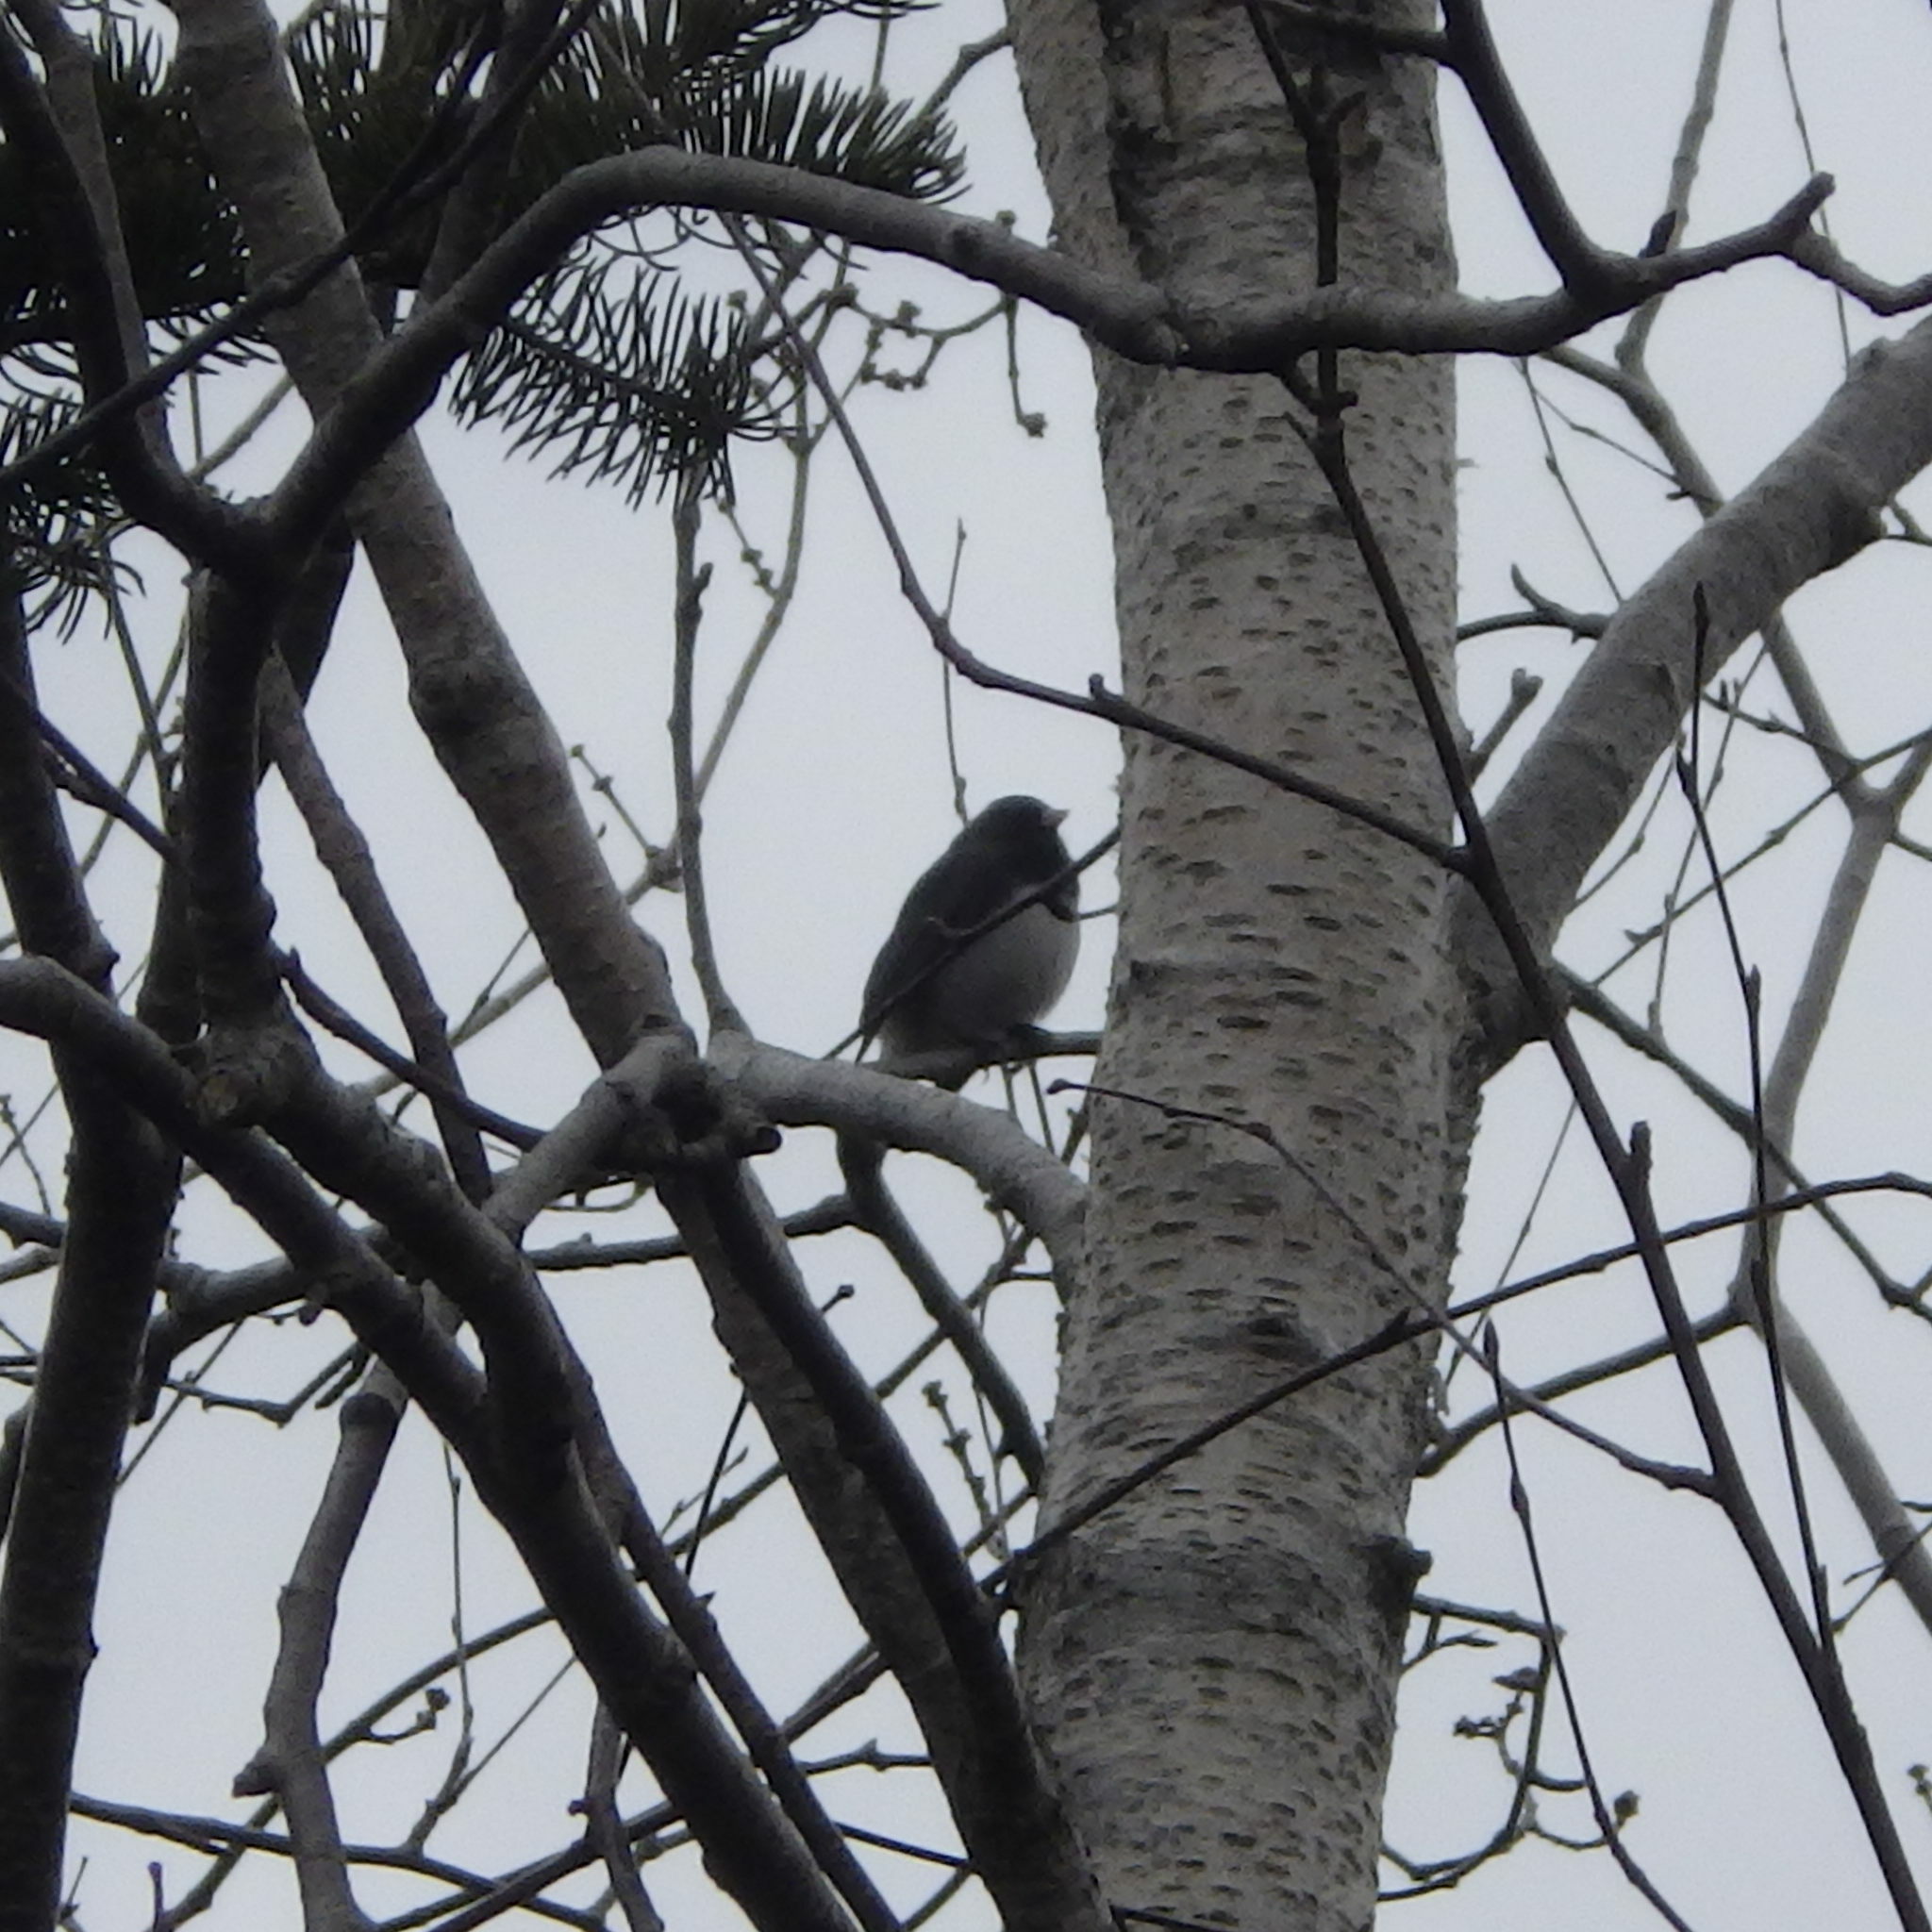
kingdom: Animalia
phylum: Chordata
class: Aves
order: Passeriformes
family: Passerellidae
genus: Junco
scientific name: Junco hyemalis
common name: Dark-eyed junco
